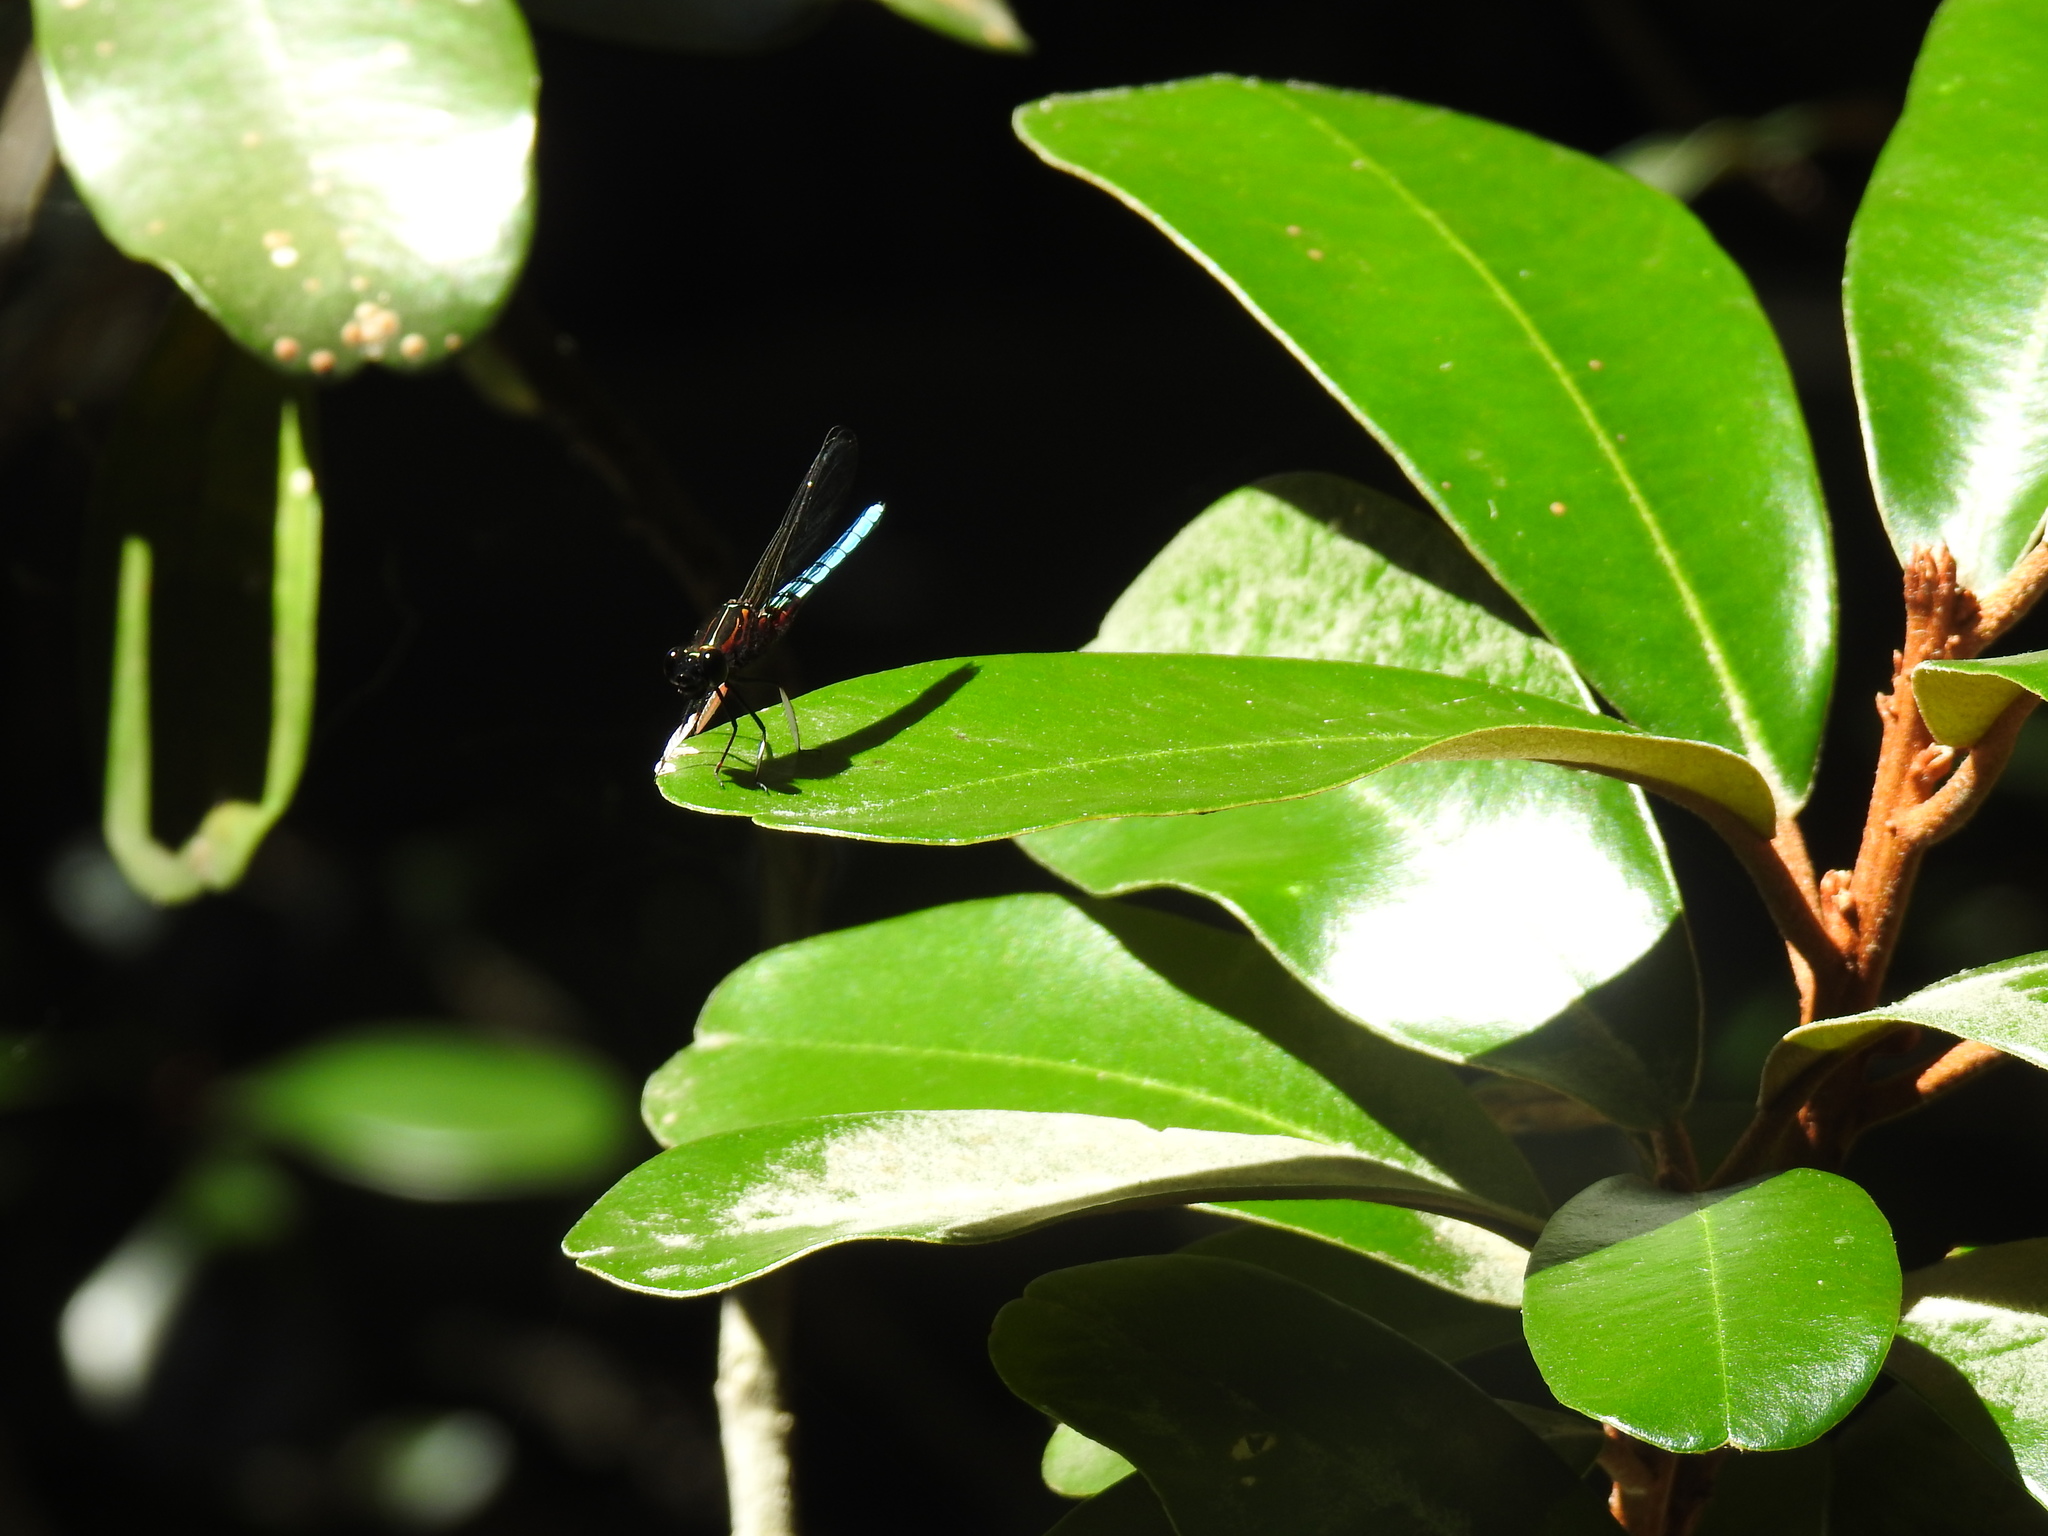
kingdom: Animalia
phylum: Arthropoda
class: Insecta
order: Odonata
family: Chlorocyphidae
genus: Platycypha
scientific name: Platycypha caligata
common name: Dancing jewel
